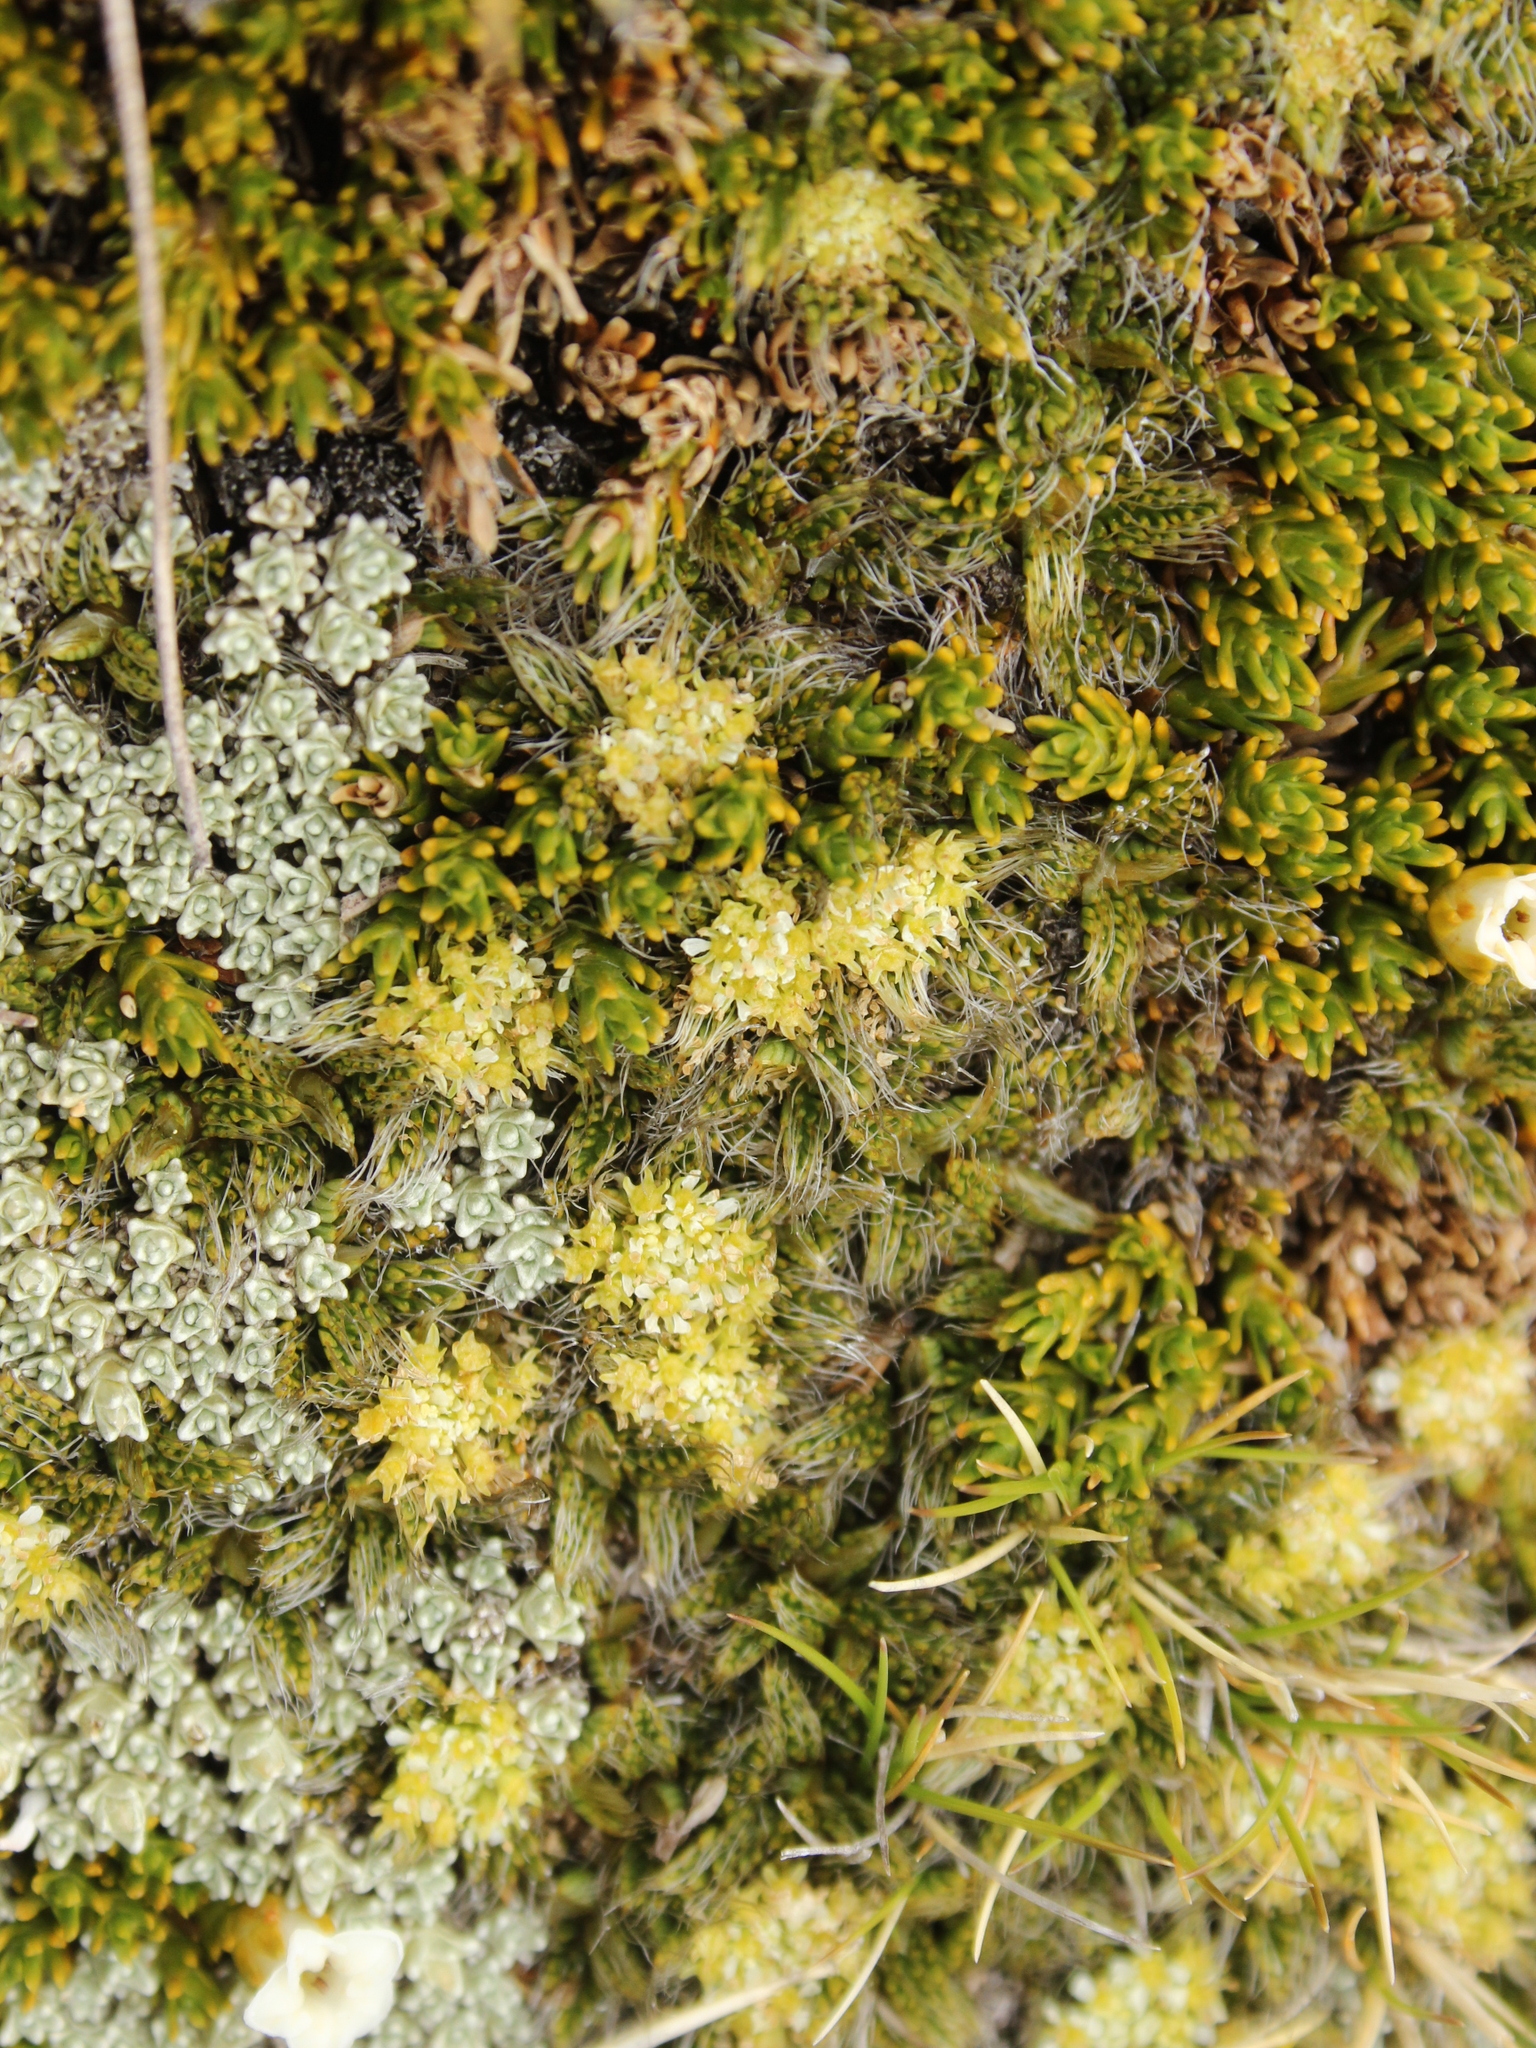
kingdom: Plantae
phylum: Tracheophyta
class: Magnoliopsida
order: Apiales
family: Apiaceae
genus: Anisotome
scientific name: Anisotome imbricata
